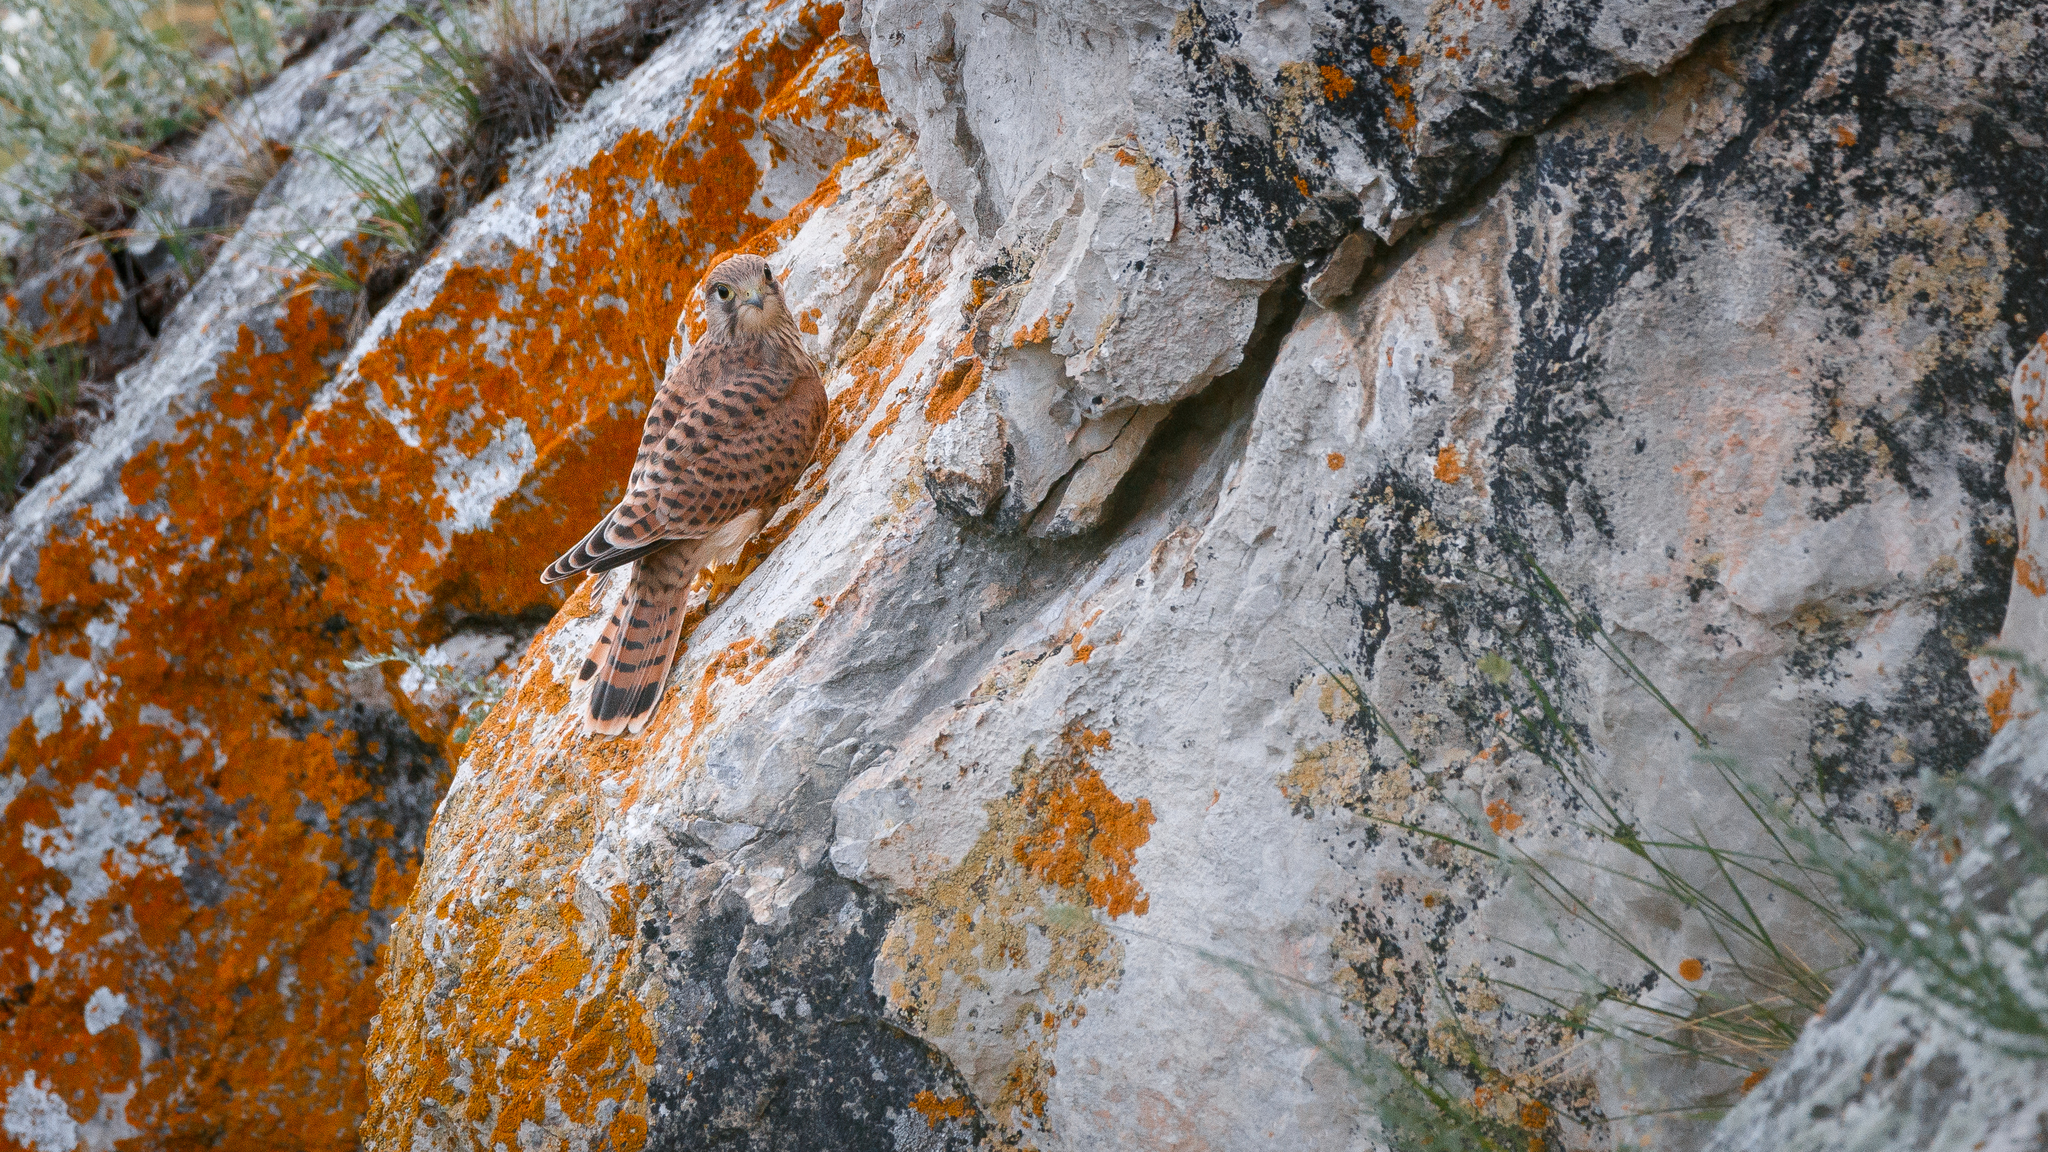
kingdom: Animalia
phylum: Chordata
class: Aves
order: Falconiformes
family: Falconidae
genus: Falco
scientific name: Falco tinnunculus
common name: Common kestrel
